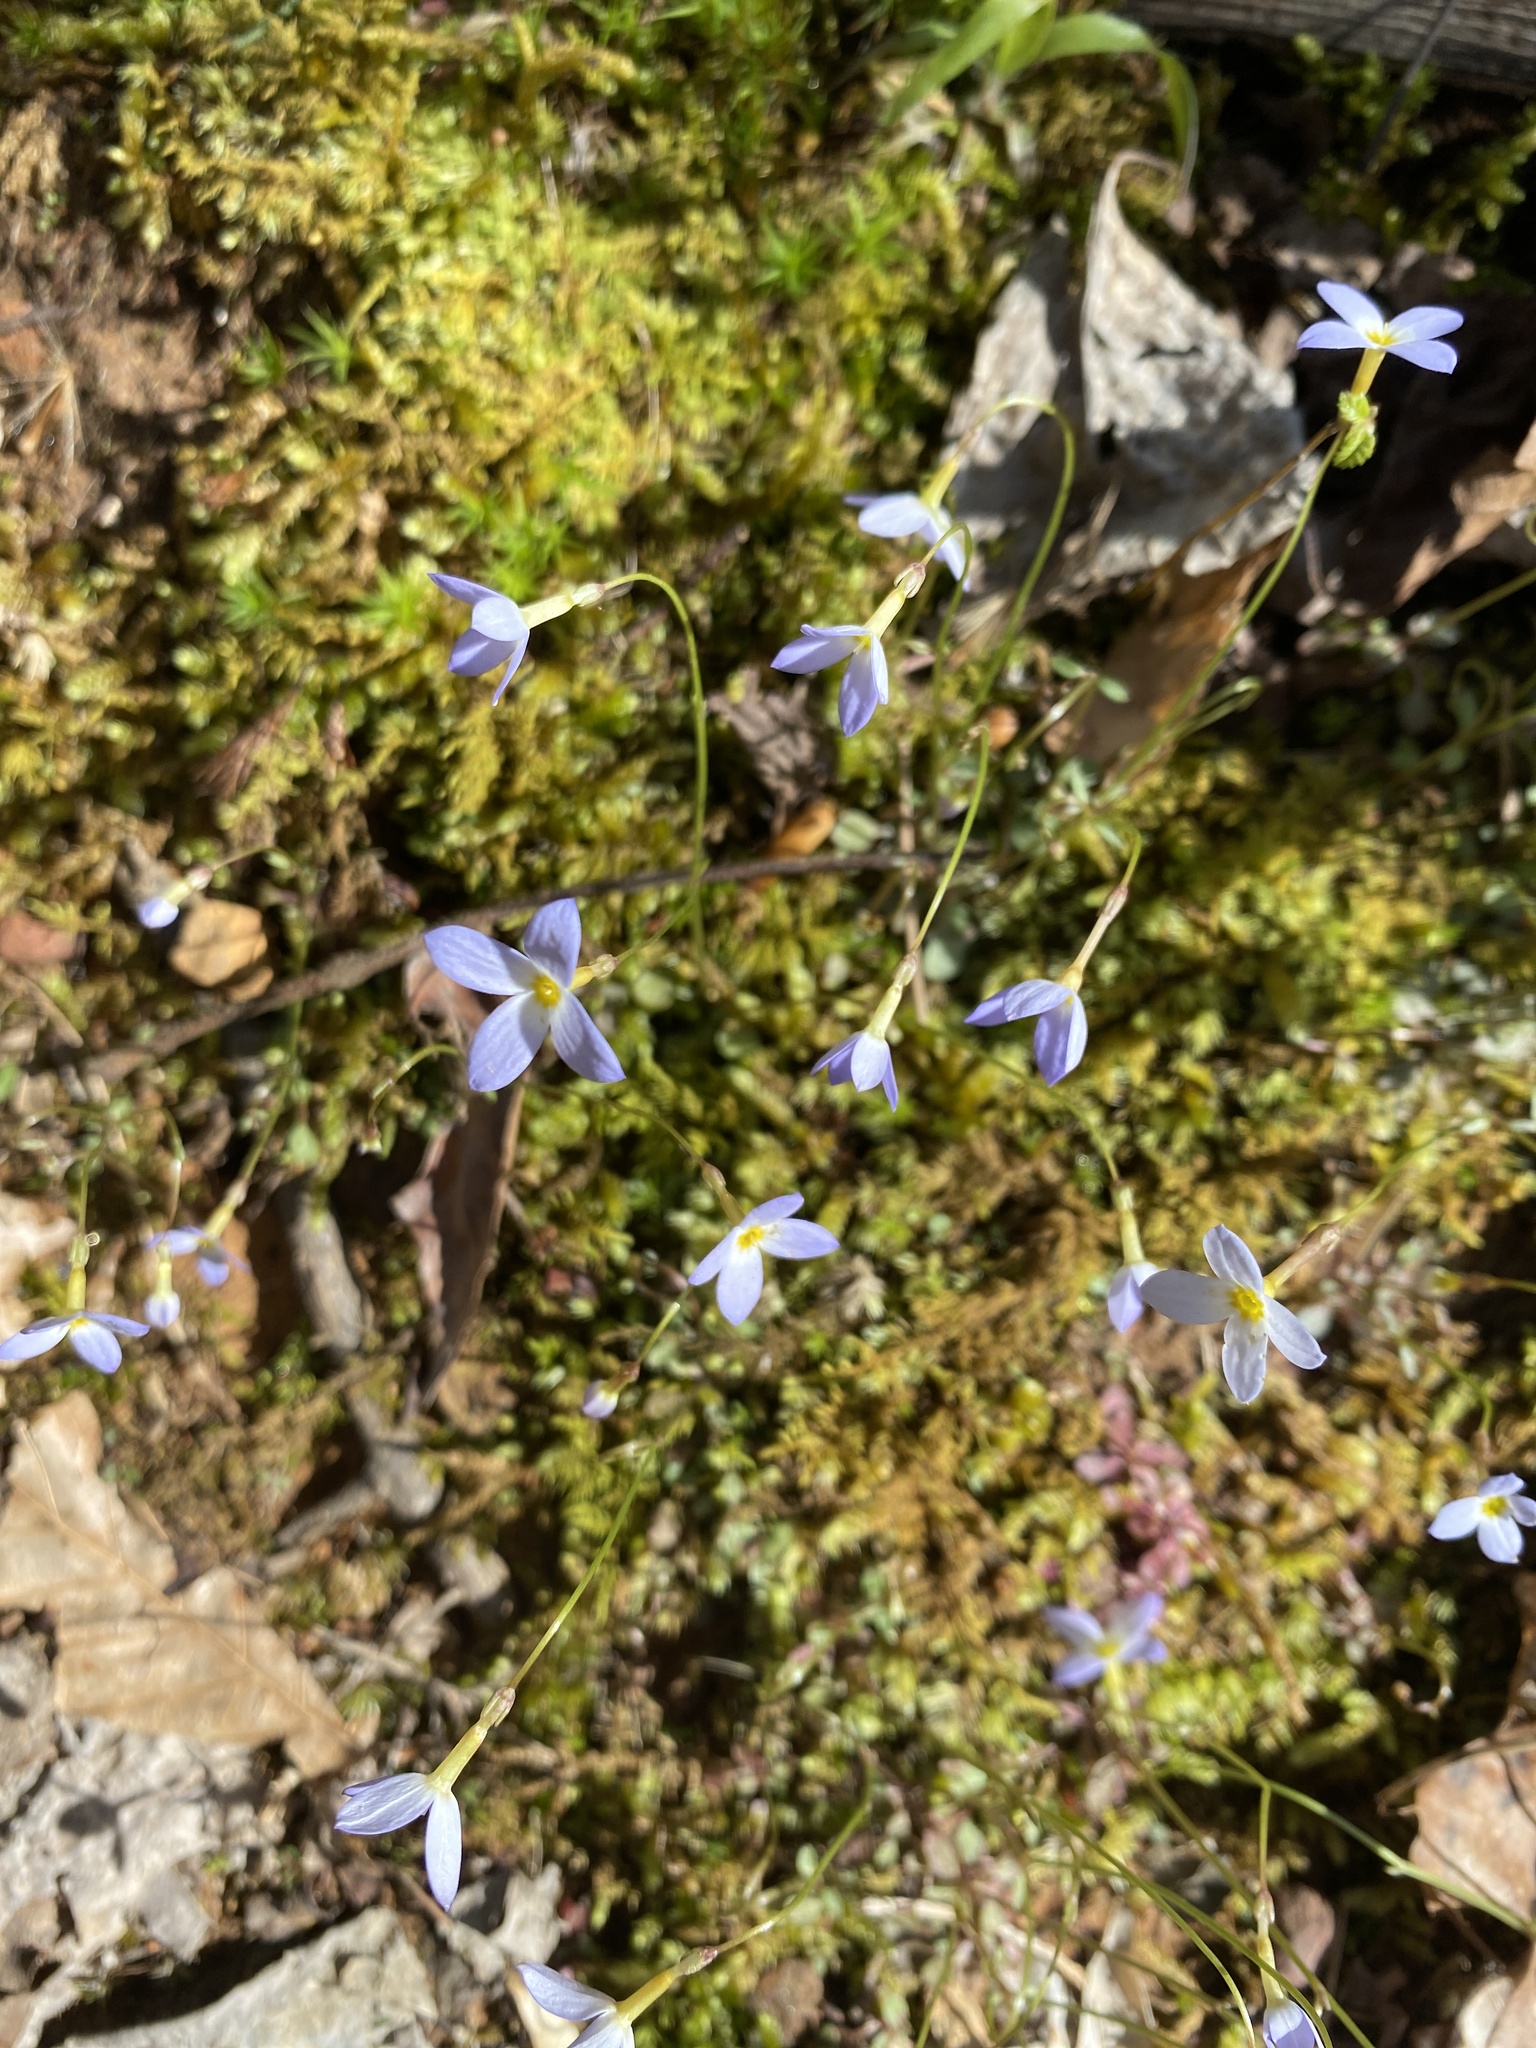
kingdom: Plantae
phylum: Tracheophyta
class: Magnoliopsida
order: Gentianales
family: Rubiaceae
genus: Houstonia
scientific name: Houstonia caerulea
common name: Bluets
